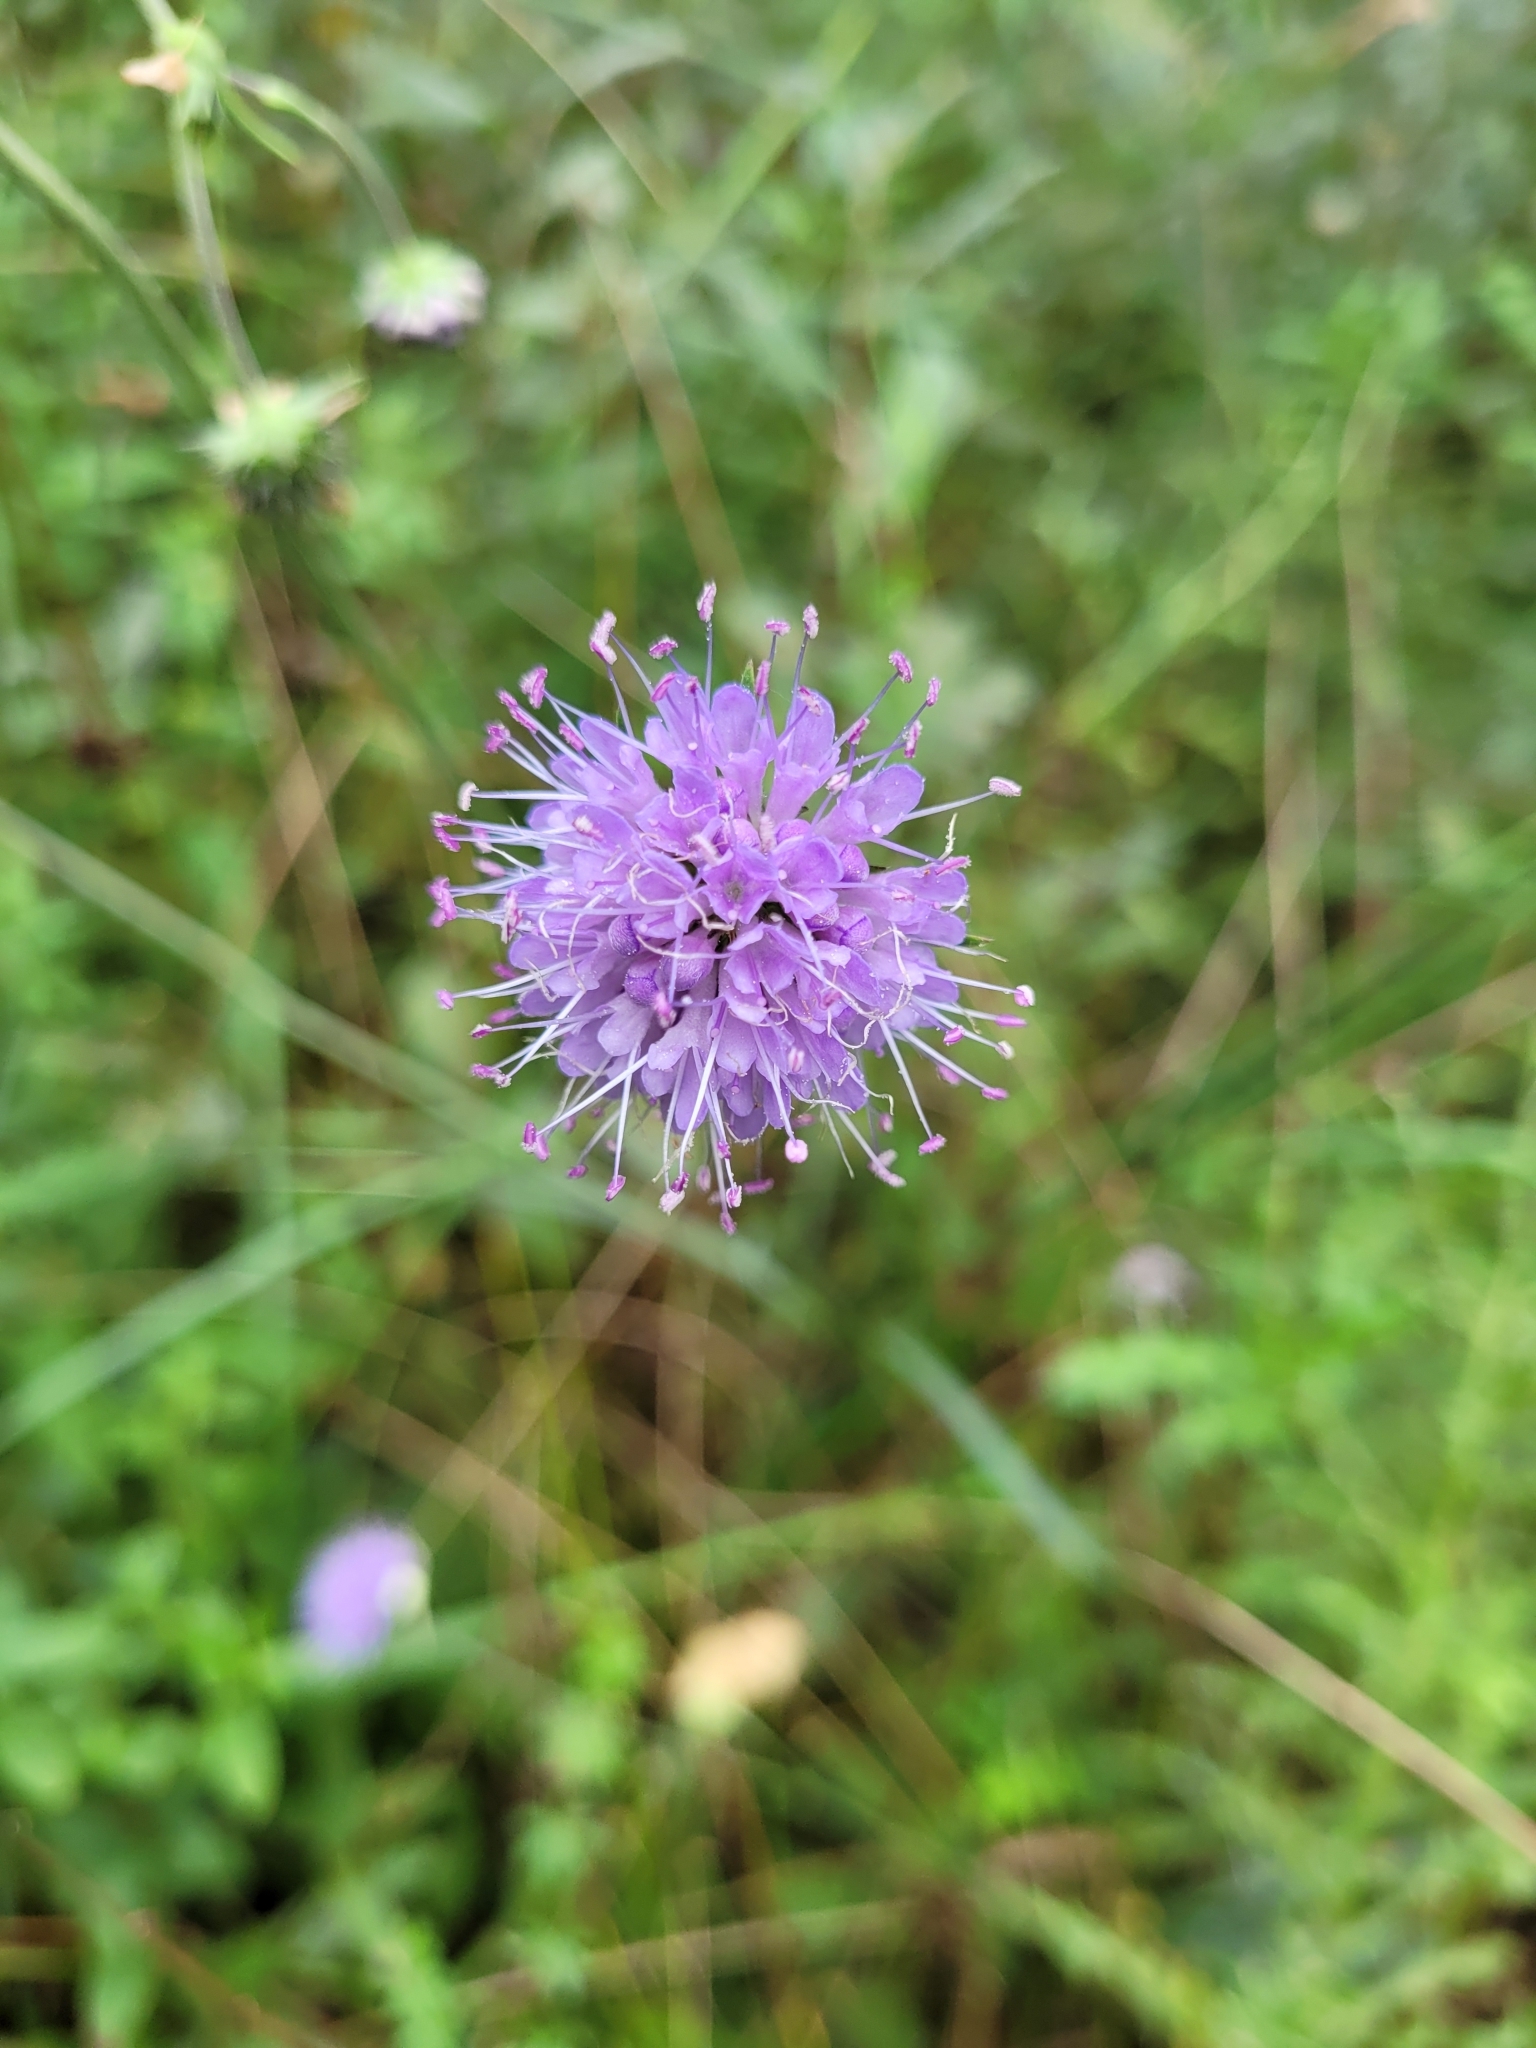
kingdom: Plantae
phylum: Tracheophyta
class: Magnoliopsida
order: Dipsacales
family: Caprifoliaceae
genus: Succisa
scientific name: Succisa pratensis
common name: Devil's-bit
